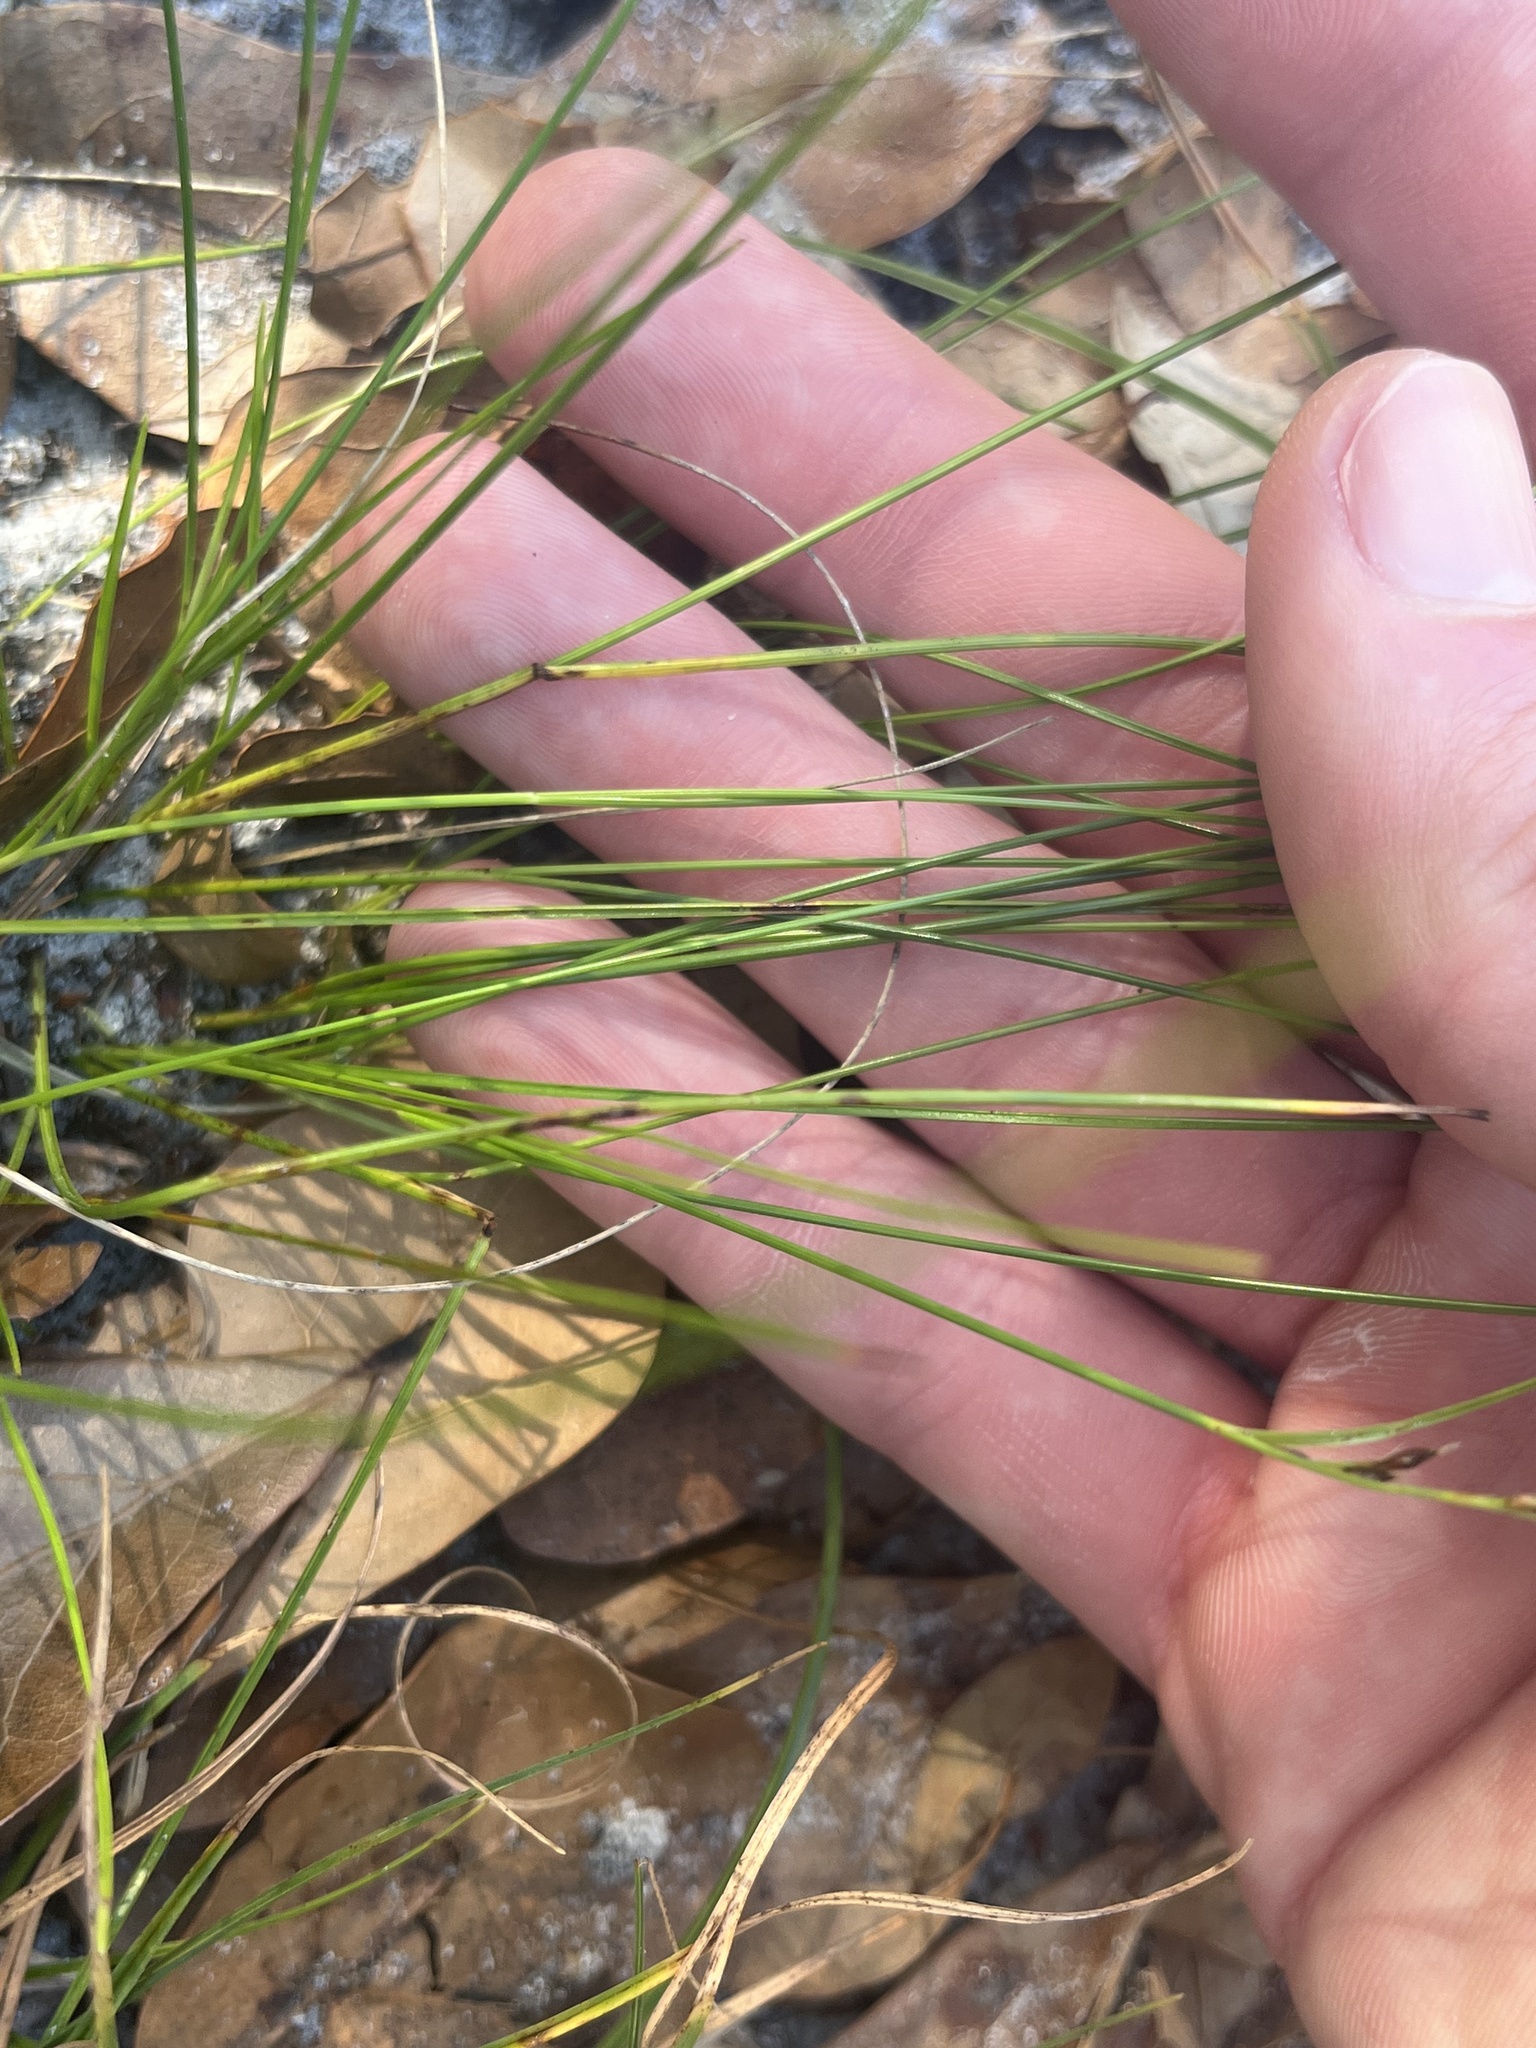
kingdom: Plantae
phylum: Tracheophyta
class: Liliopsida
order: Poales
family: Cyperaceae
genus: Rhynchospora
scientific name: Rhynchospora plumosa
